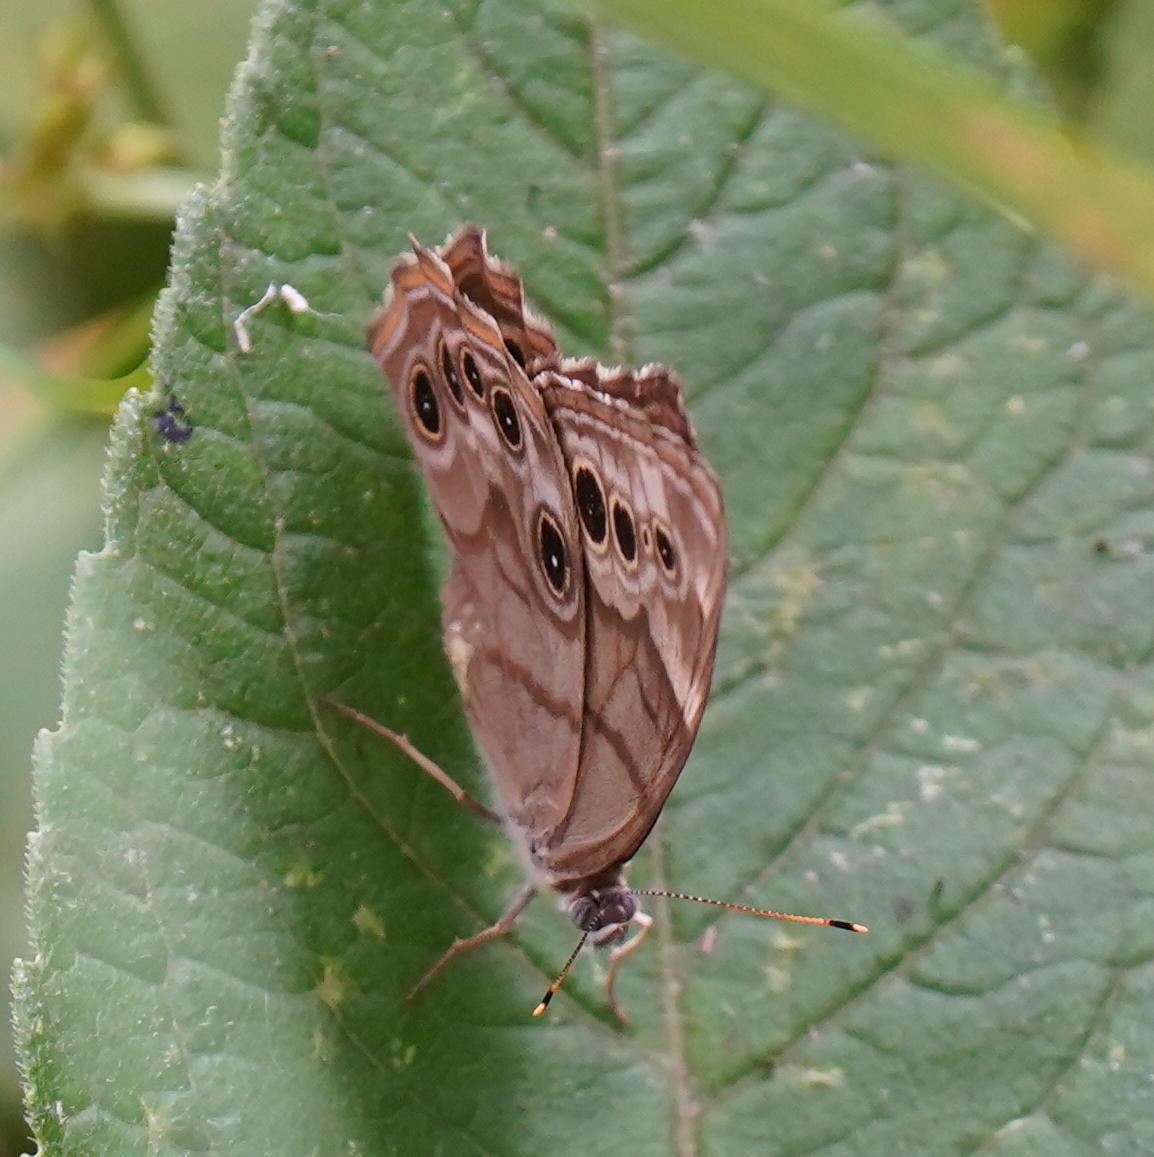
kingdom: Animalia
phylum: Arthropoda
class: Insecta
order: Lepidoptera
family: Nymphalidae
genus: Lethe
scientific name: Lethe anthedon
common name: Northern pearly-eye
